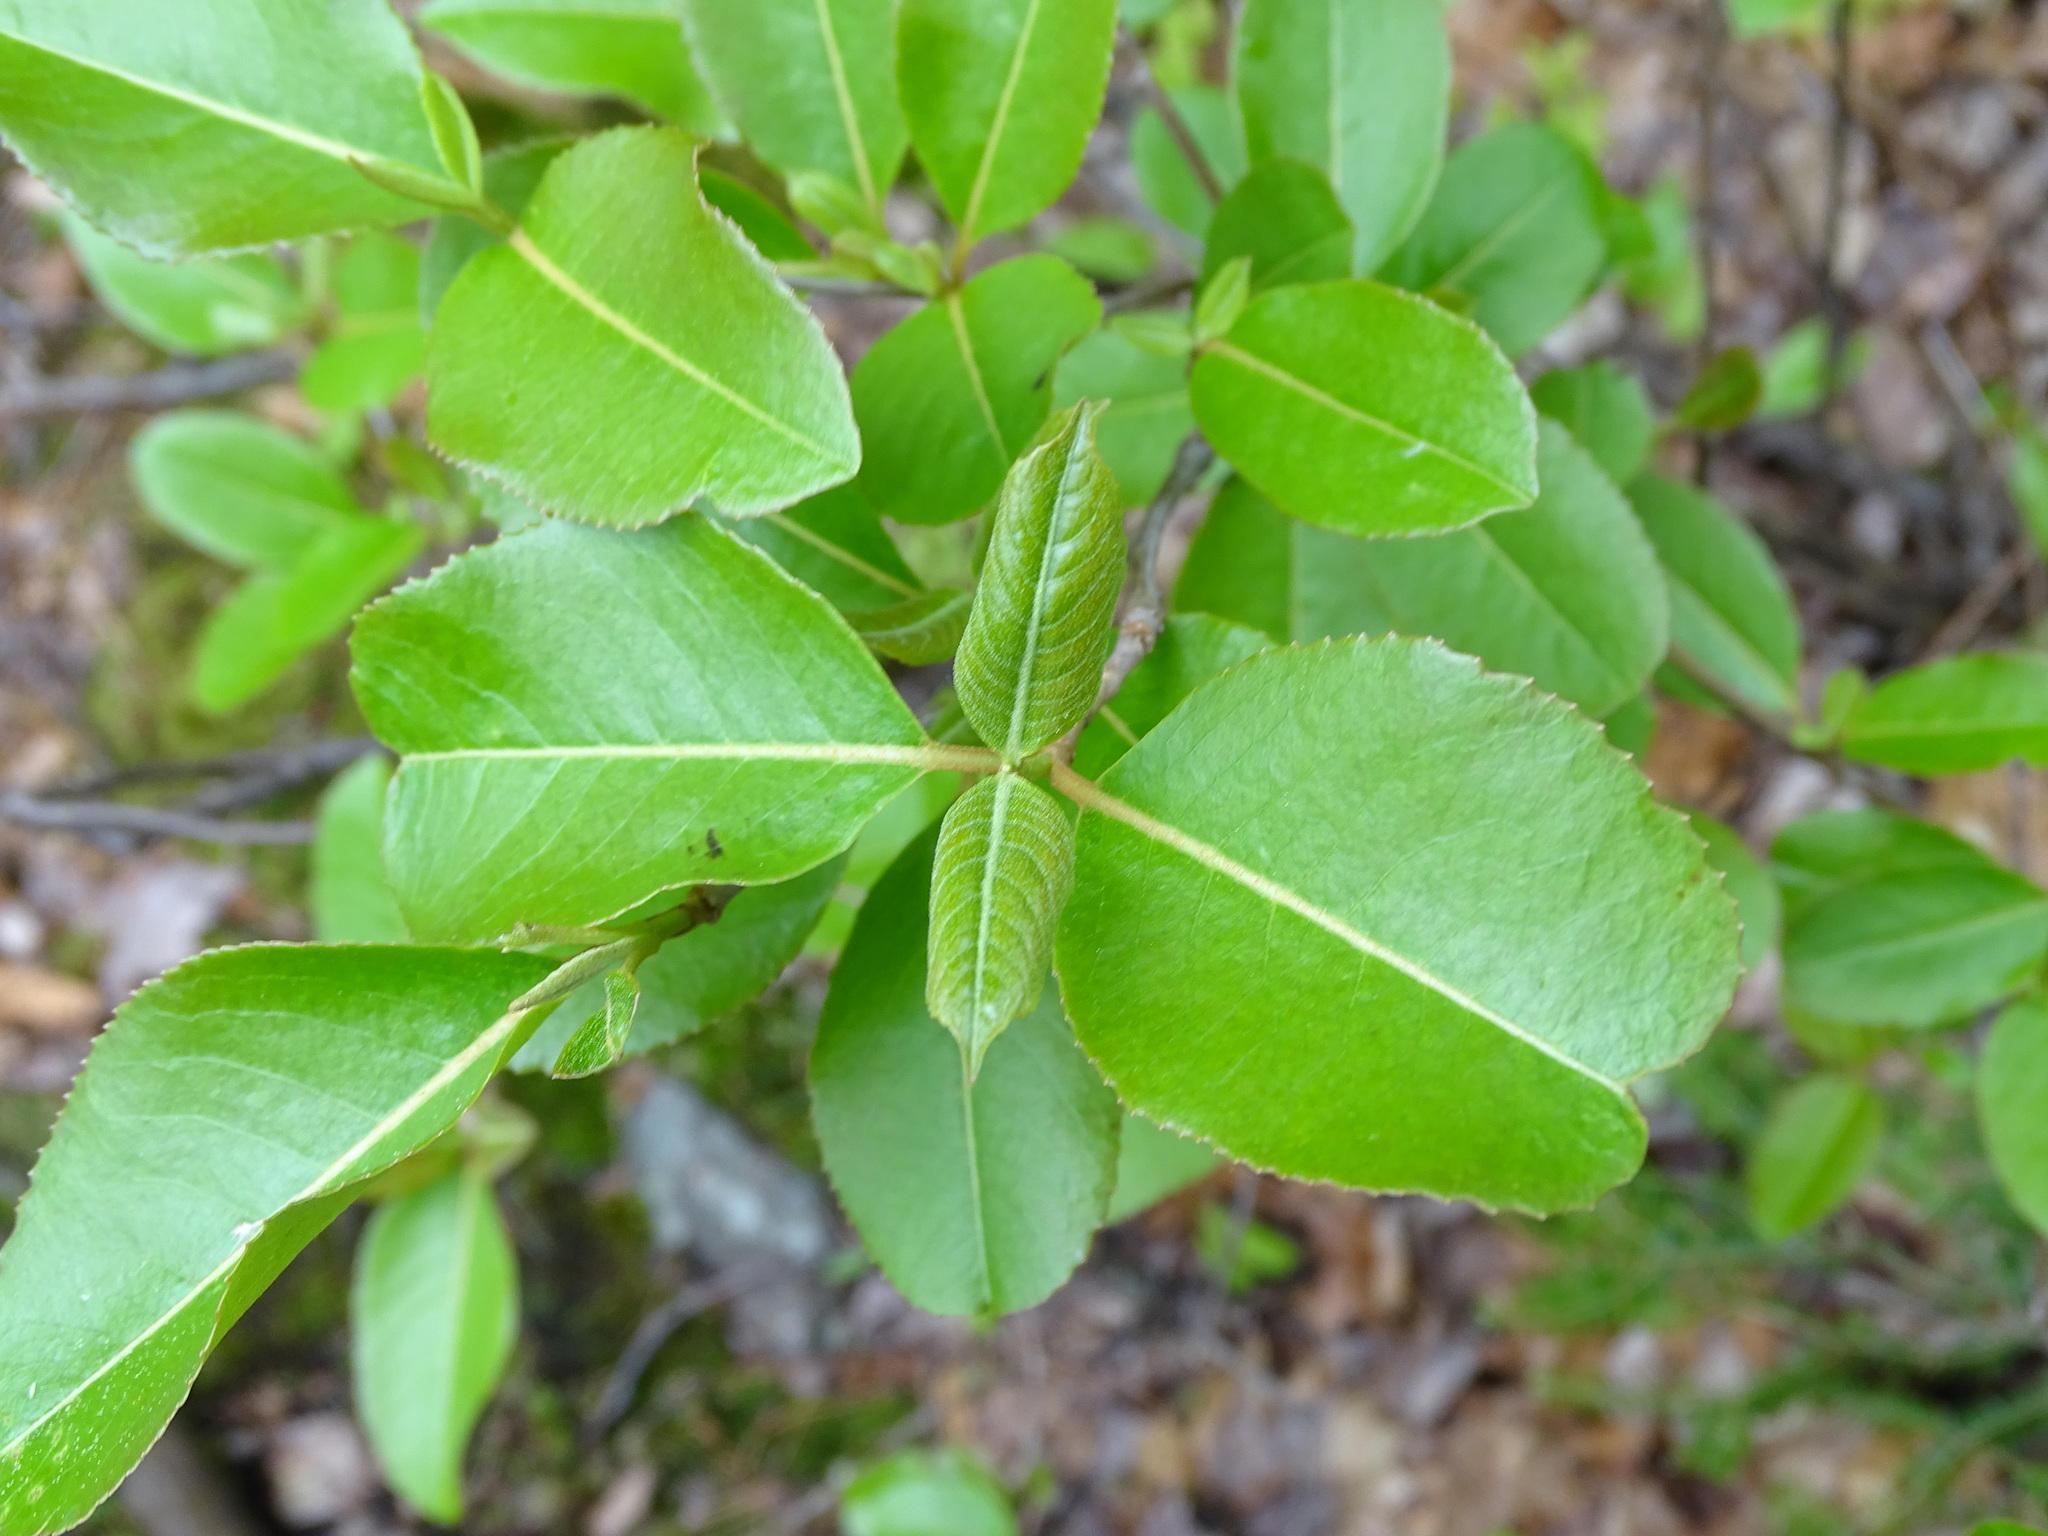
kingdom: Plantae
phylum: Tracheophyta
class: Magnoliopsida
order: Dipsacales
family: Viburnaceae
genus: Viburnum
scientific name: Viburnum cassinoides
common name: Swamp haw
